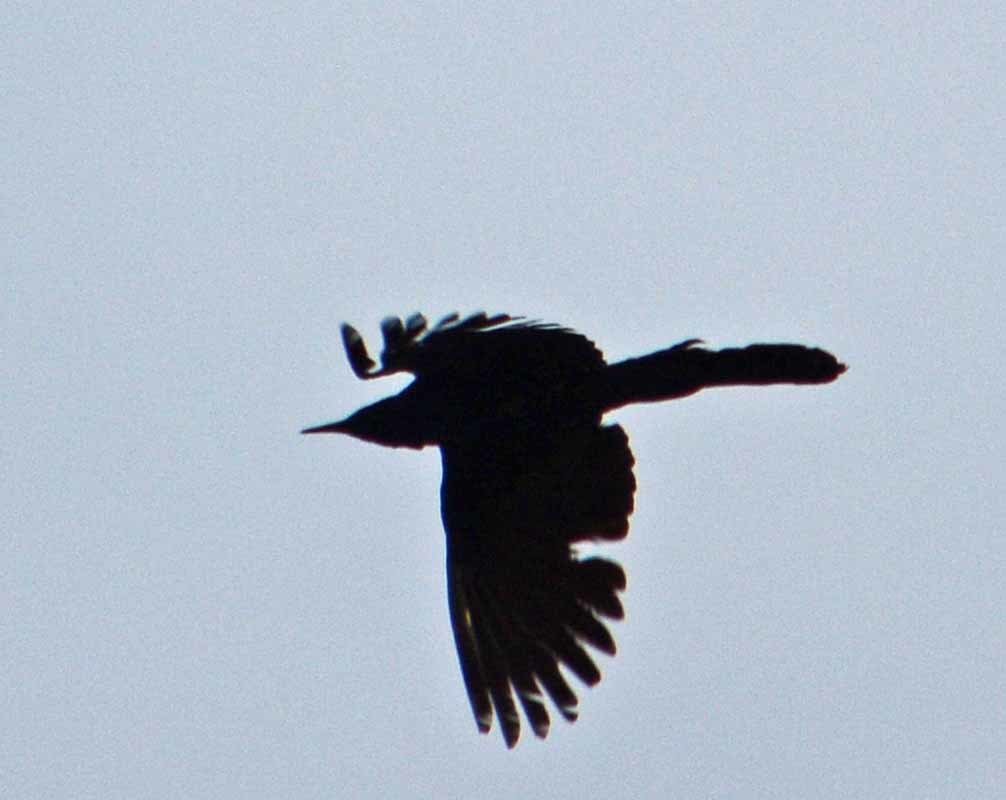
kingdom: Animalia
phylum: Chordata
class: Aves
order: Passeriformes
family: Icteridae
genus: Quiscalus
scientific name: Quiscalus mexicanus
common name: Great-tailed grackle
